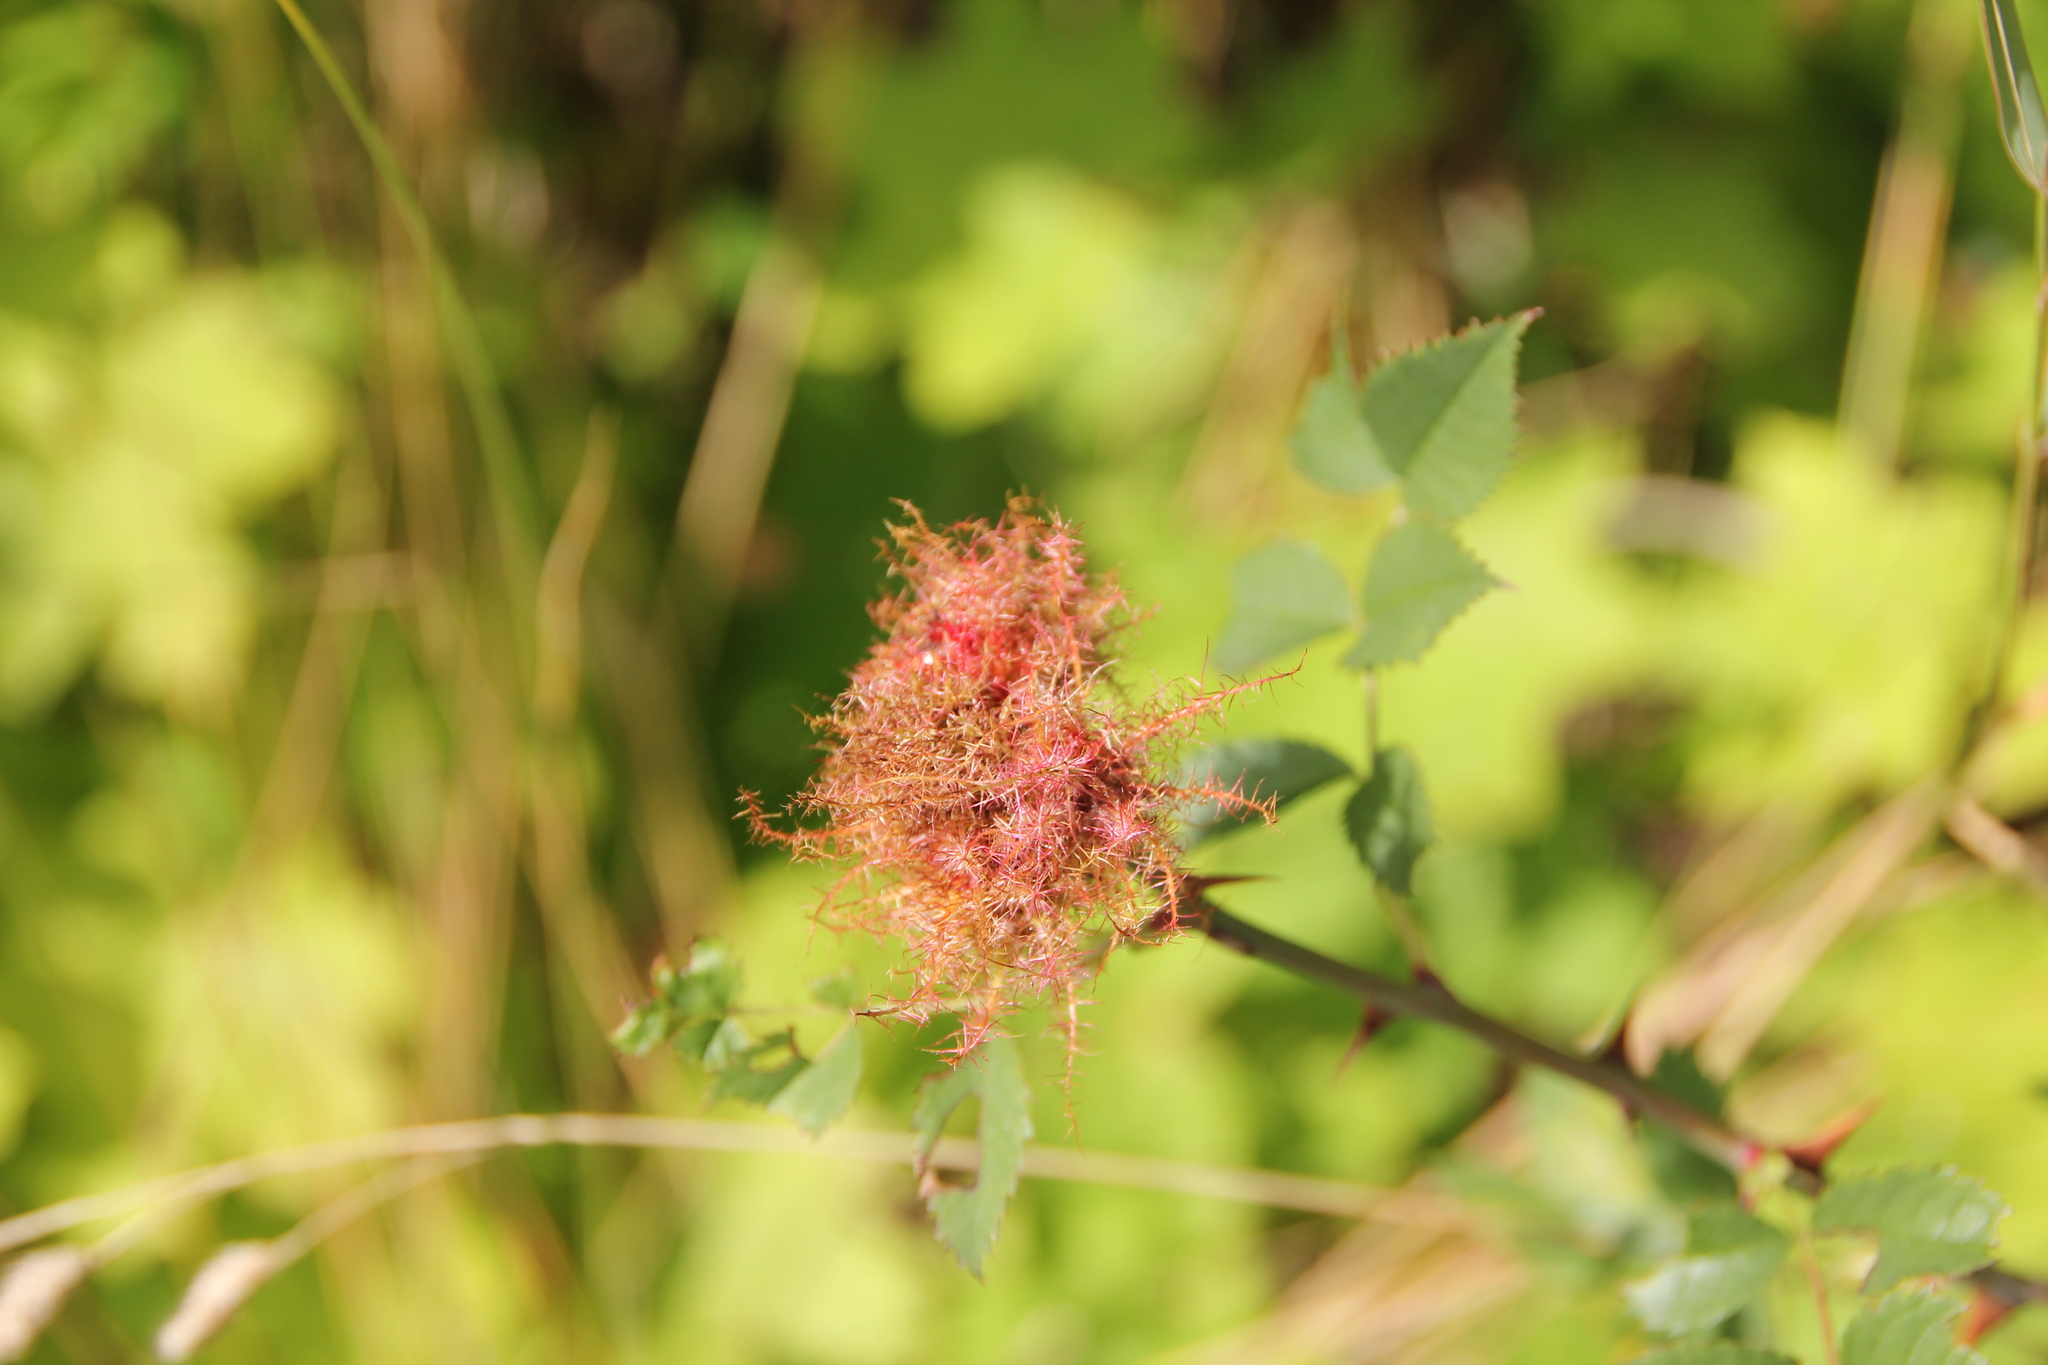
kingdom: Animalia
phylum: Arthropoda
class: Insecta
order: Hymenoptera
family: Cynipidae
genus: Diplolepis
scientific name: Diplolepis rosae
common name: Bedeguar gall
